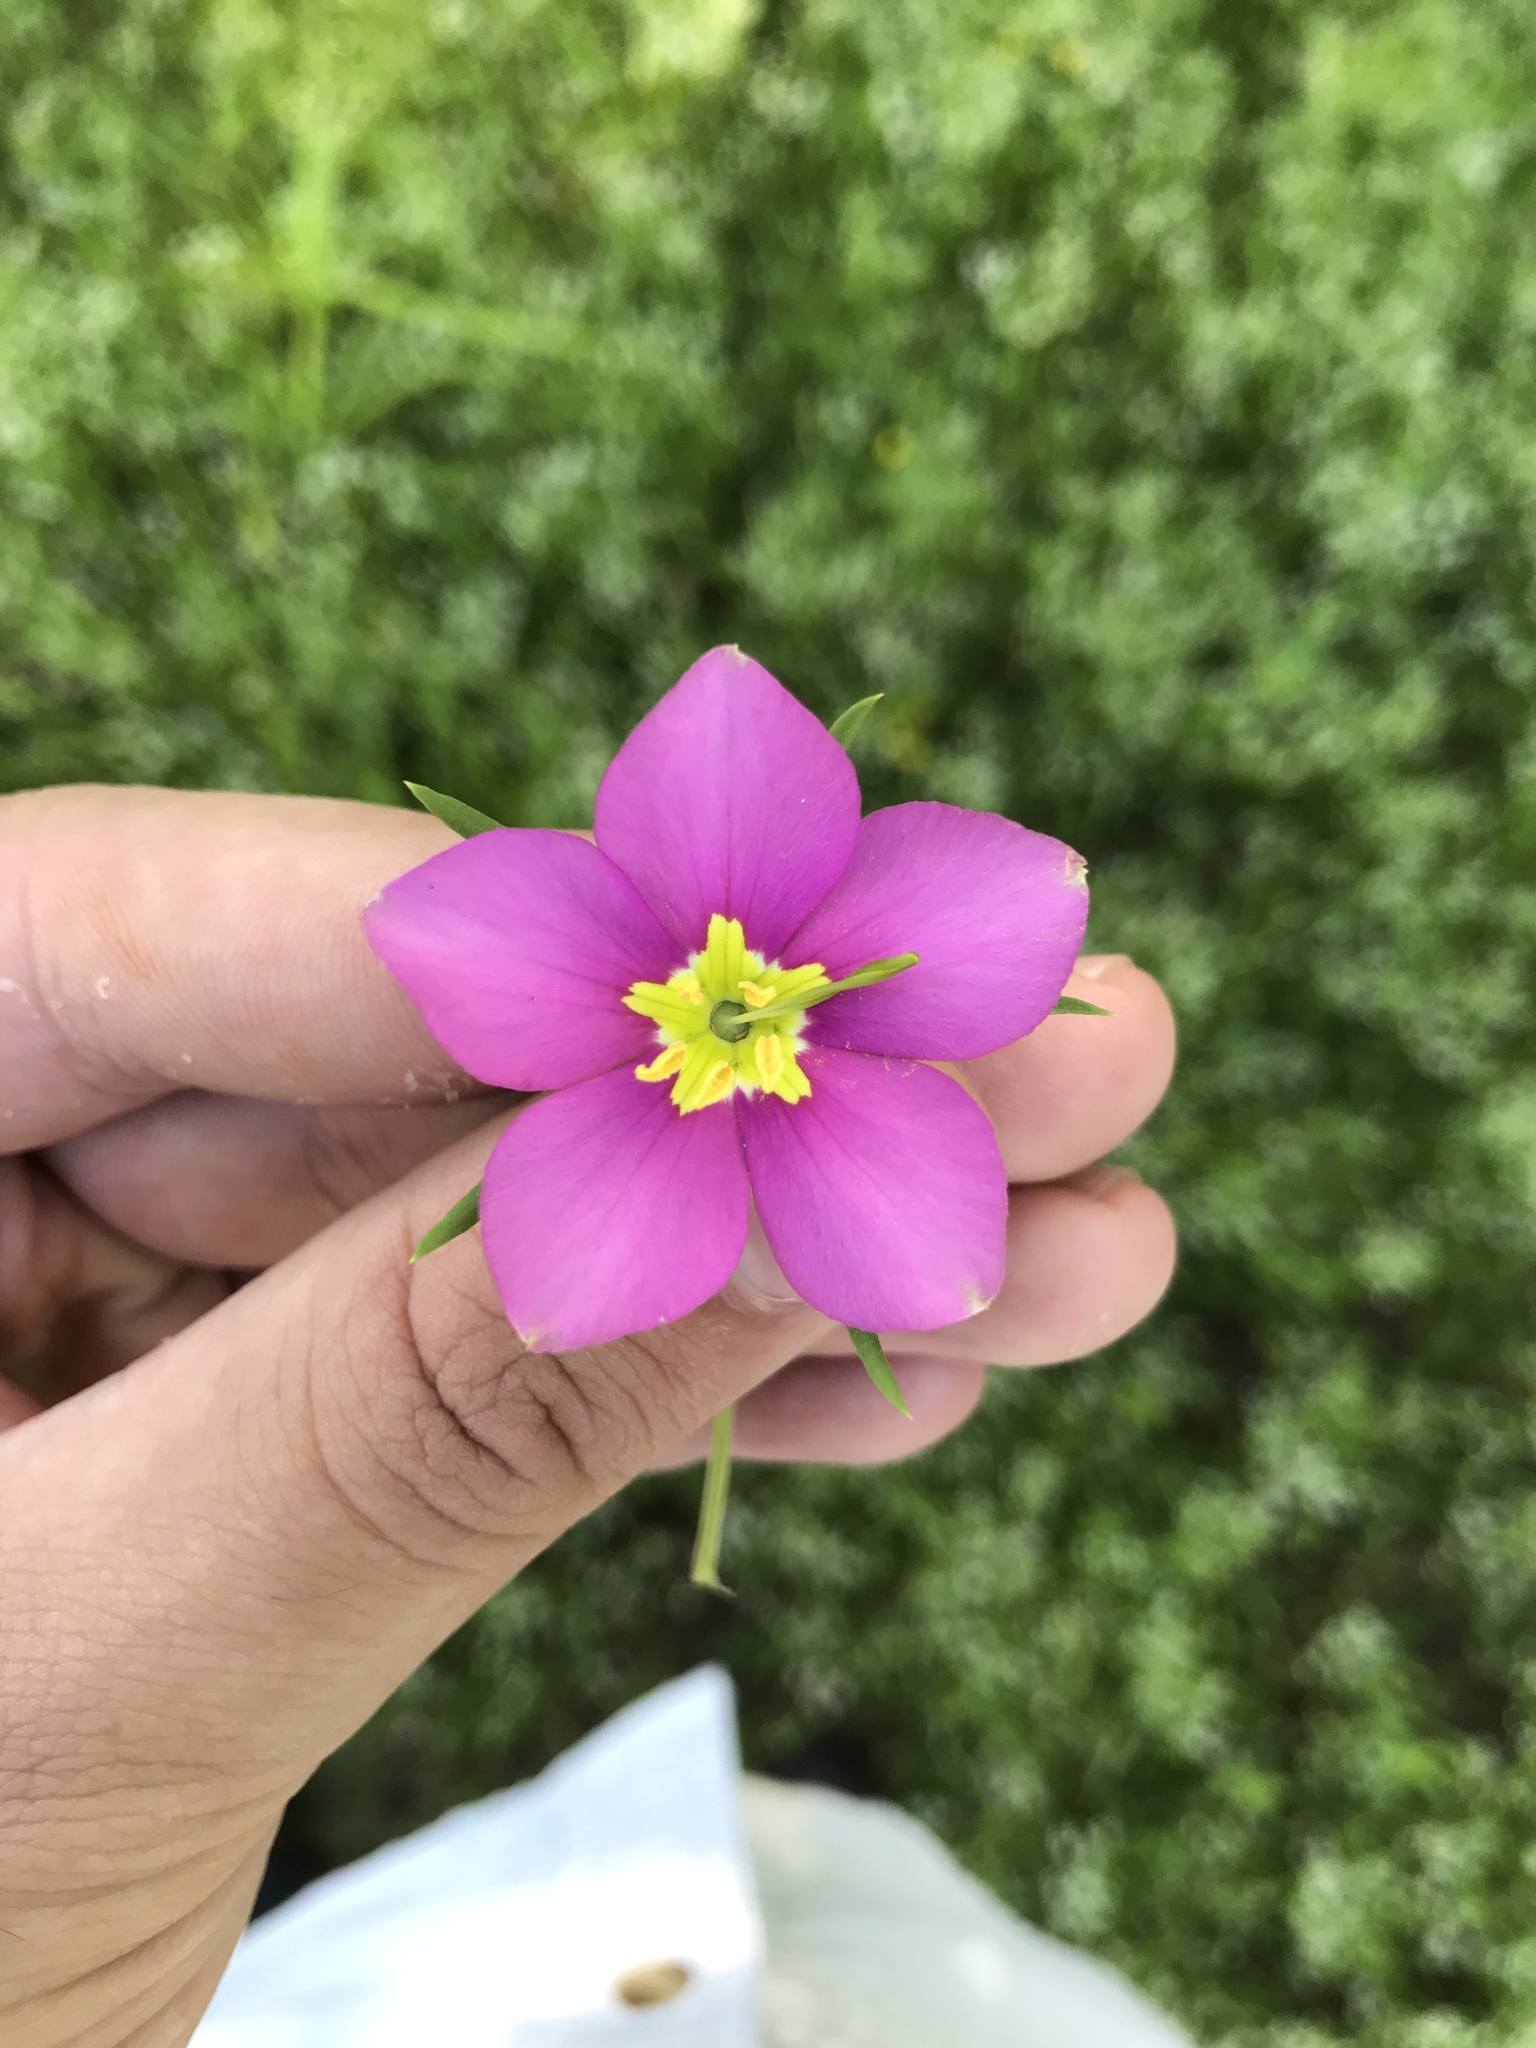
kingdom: Plantae
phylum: Tracheophyta
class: Magnoliopsida
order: Gentianales
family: Gentianaceae
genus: Sabatia
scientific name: Sabatia campestris
